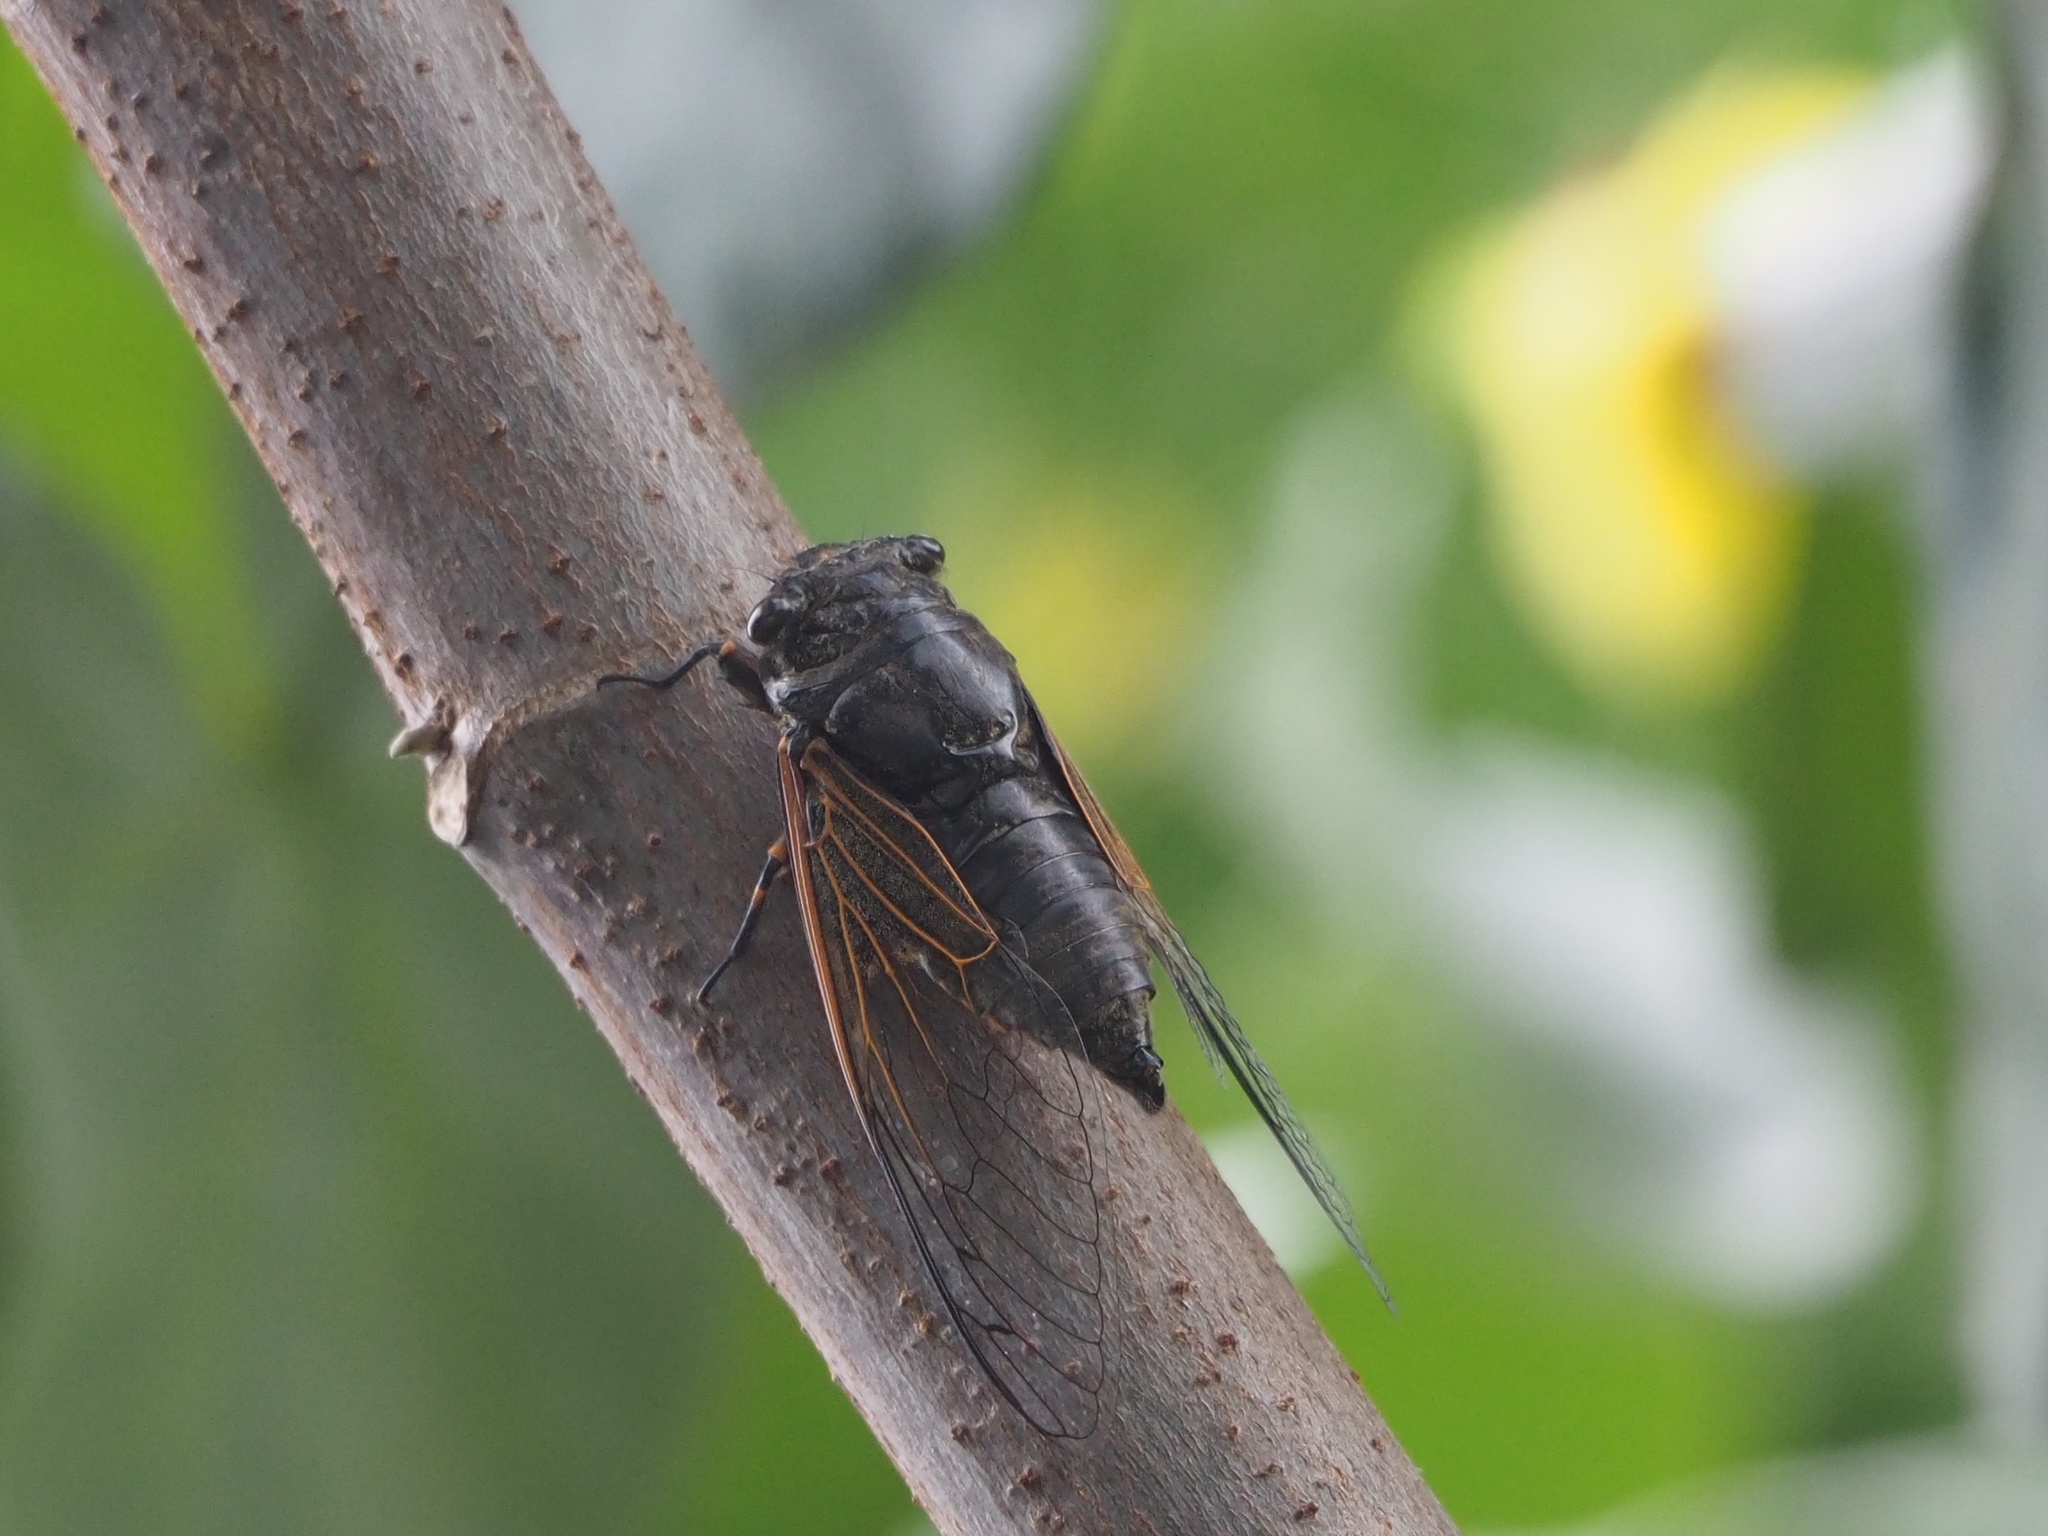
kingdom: Animalia
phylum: Arthropoda
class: Insecta
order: Hemiptera
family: Cicadidae
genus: Cryptotympana
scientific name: Cryptotympana atrata
